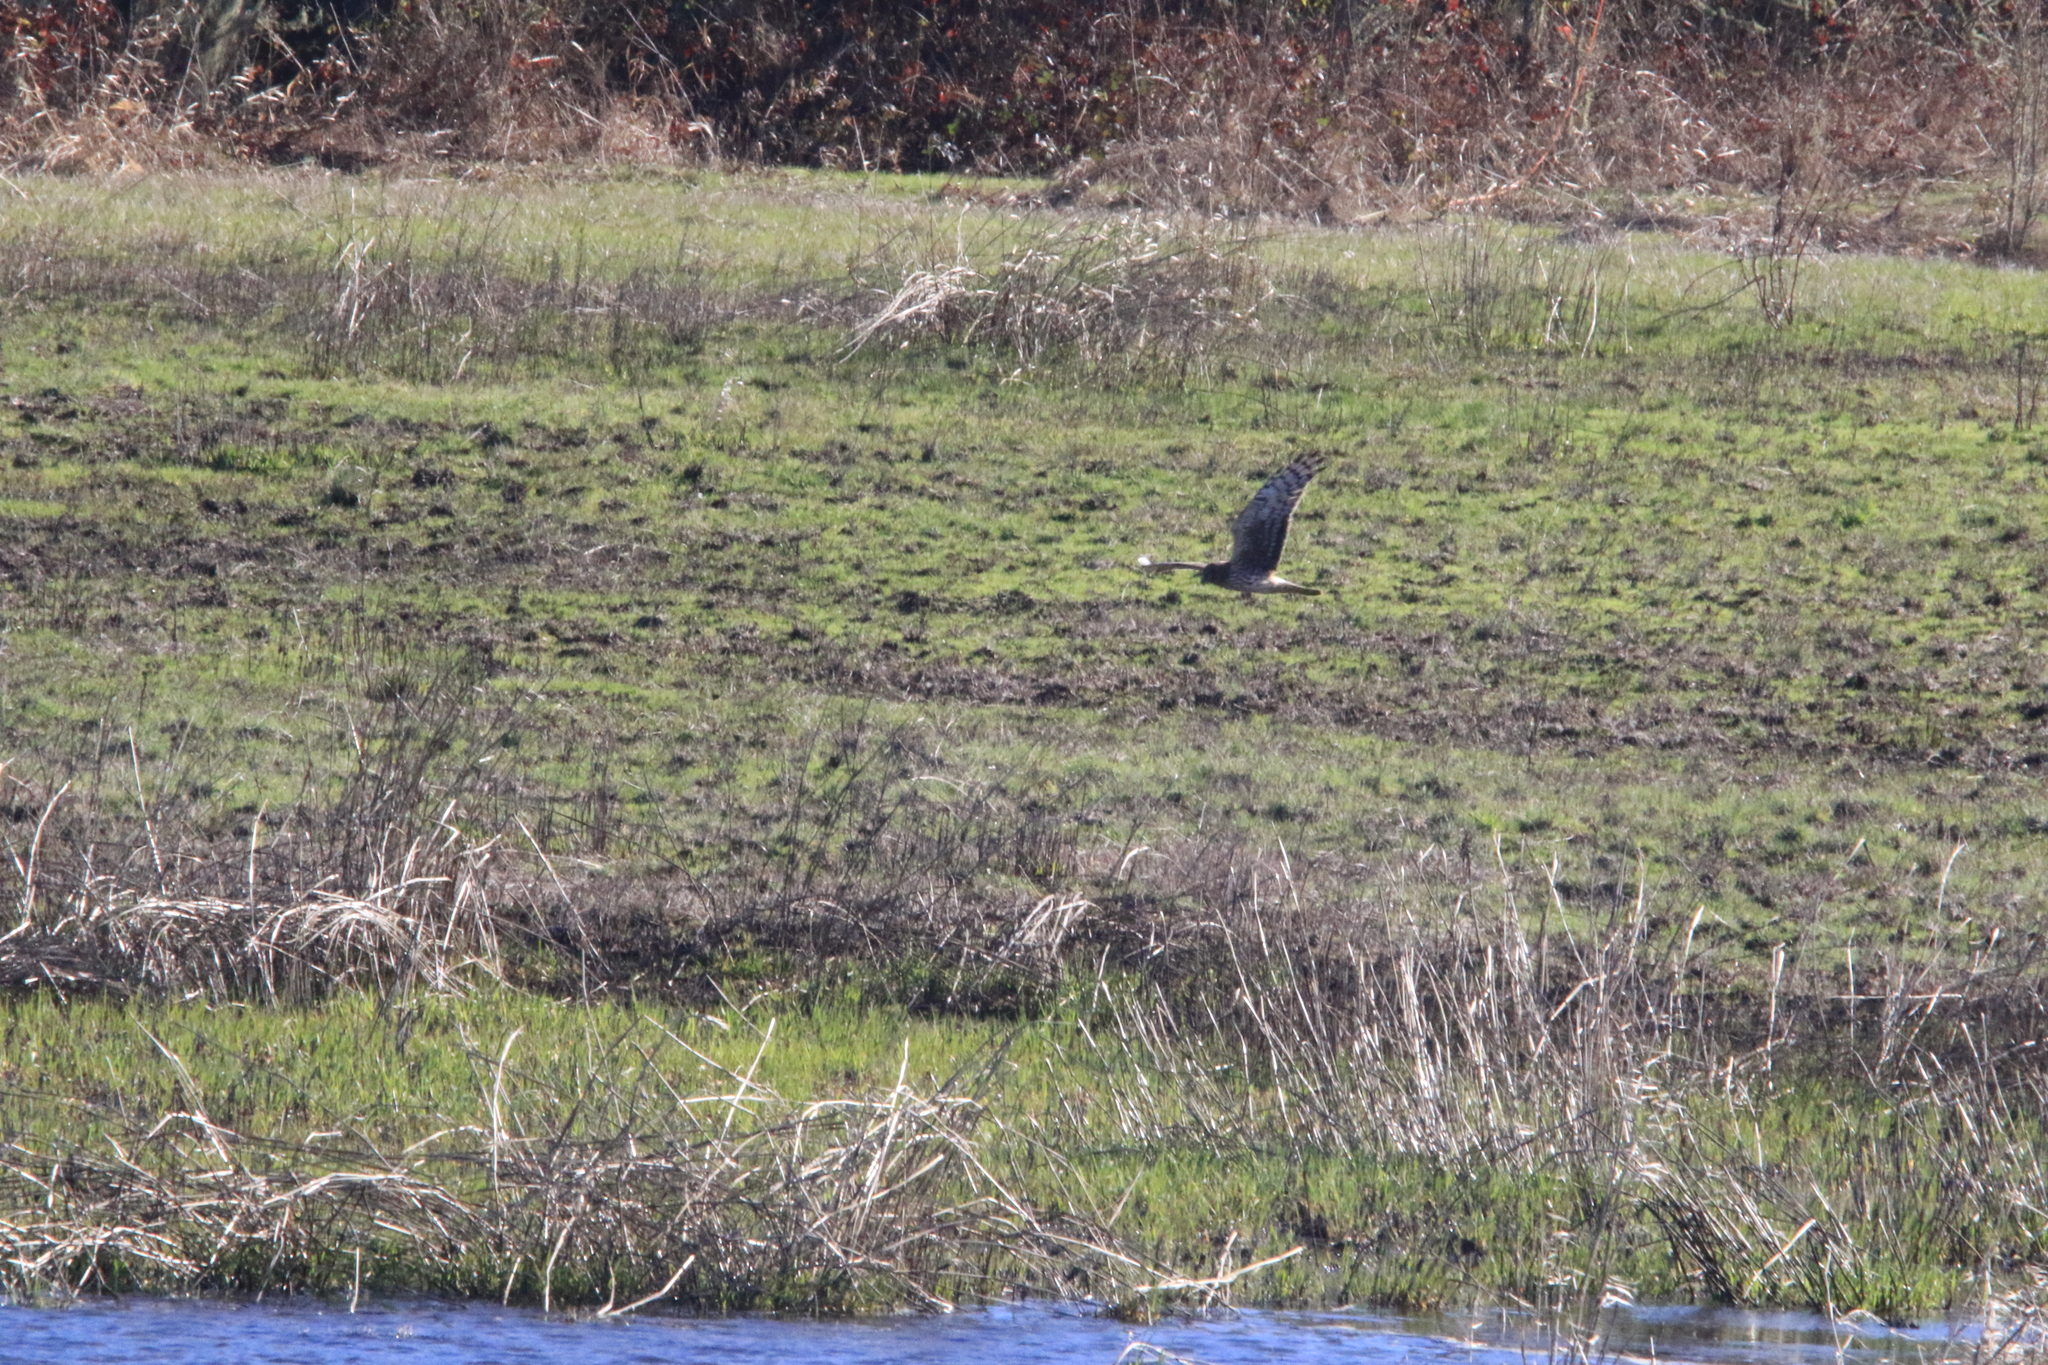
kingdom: Animalia
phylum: Chordata
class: Aves
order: Accipitriformes
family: Accipitridae
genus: Circus
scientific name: Circus cyaneus
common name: Hen harrier
